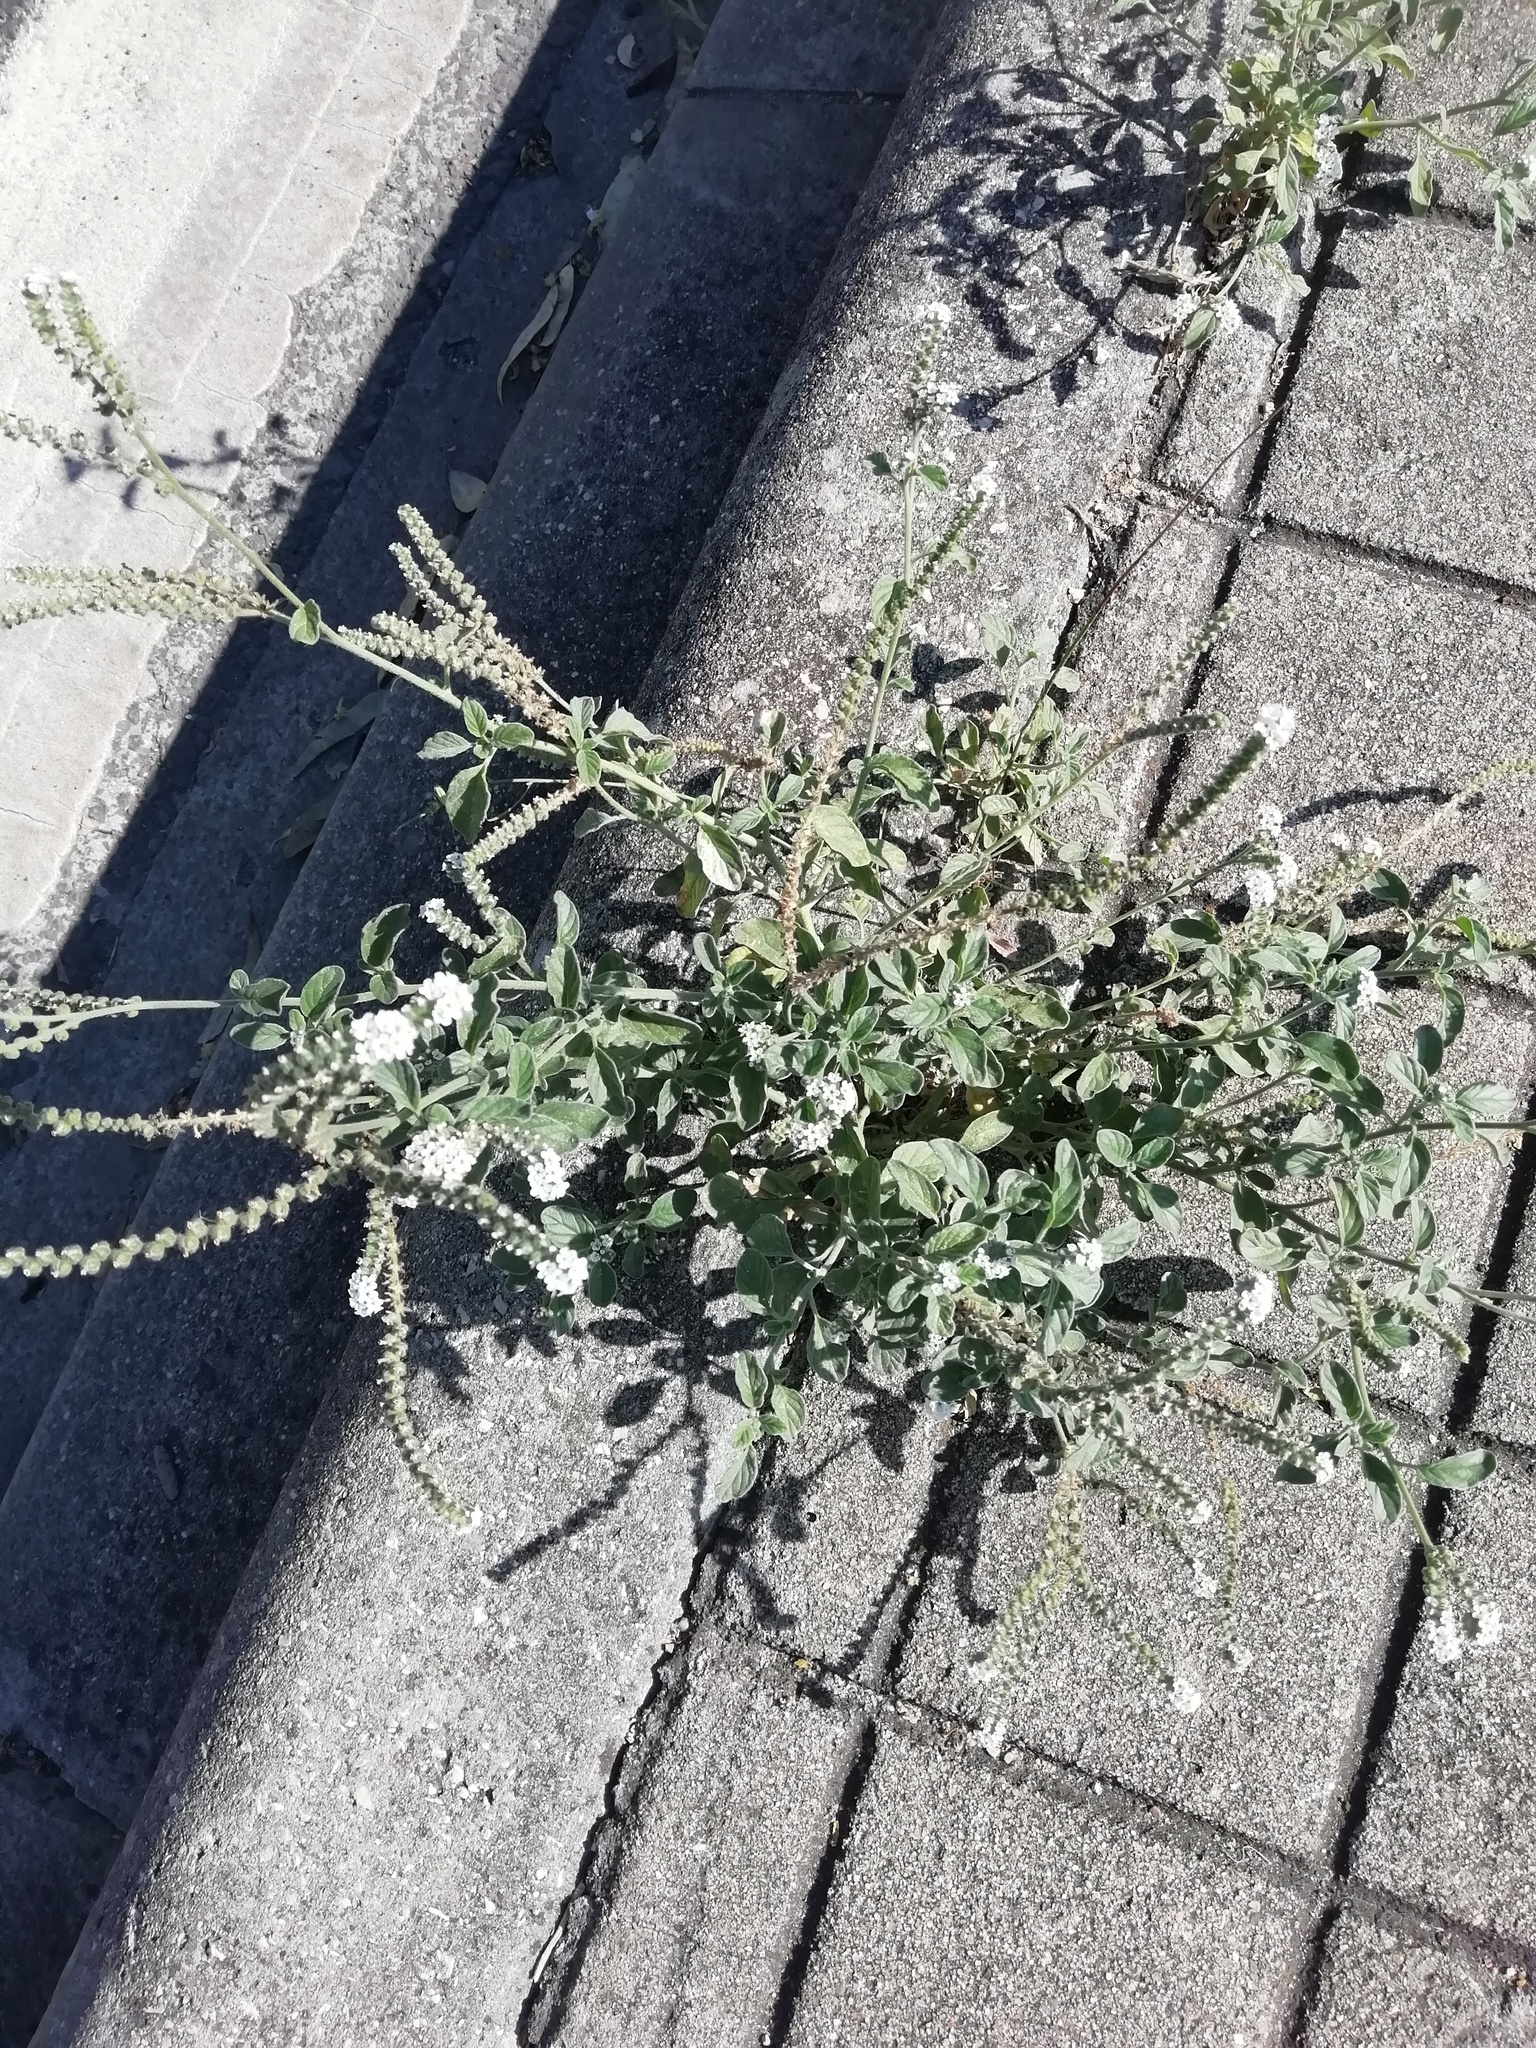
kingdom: Plantae
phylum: Tracheophyta
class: Magnoliopsida
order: Boraginales
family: Heliotropiaceae
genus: Heliotropium
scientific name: Heliotropium europaeum
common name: European heliotrope
